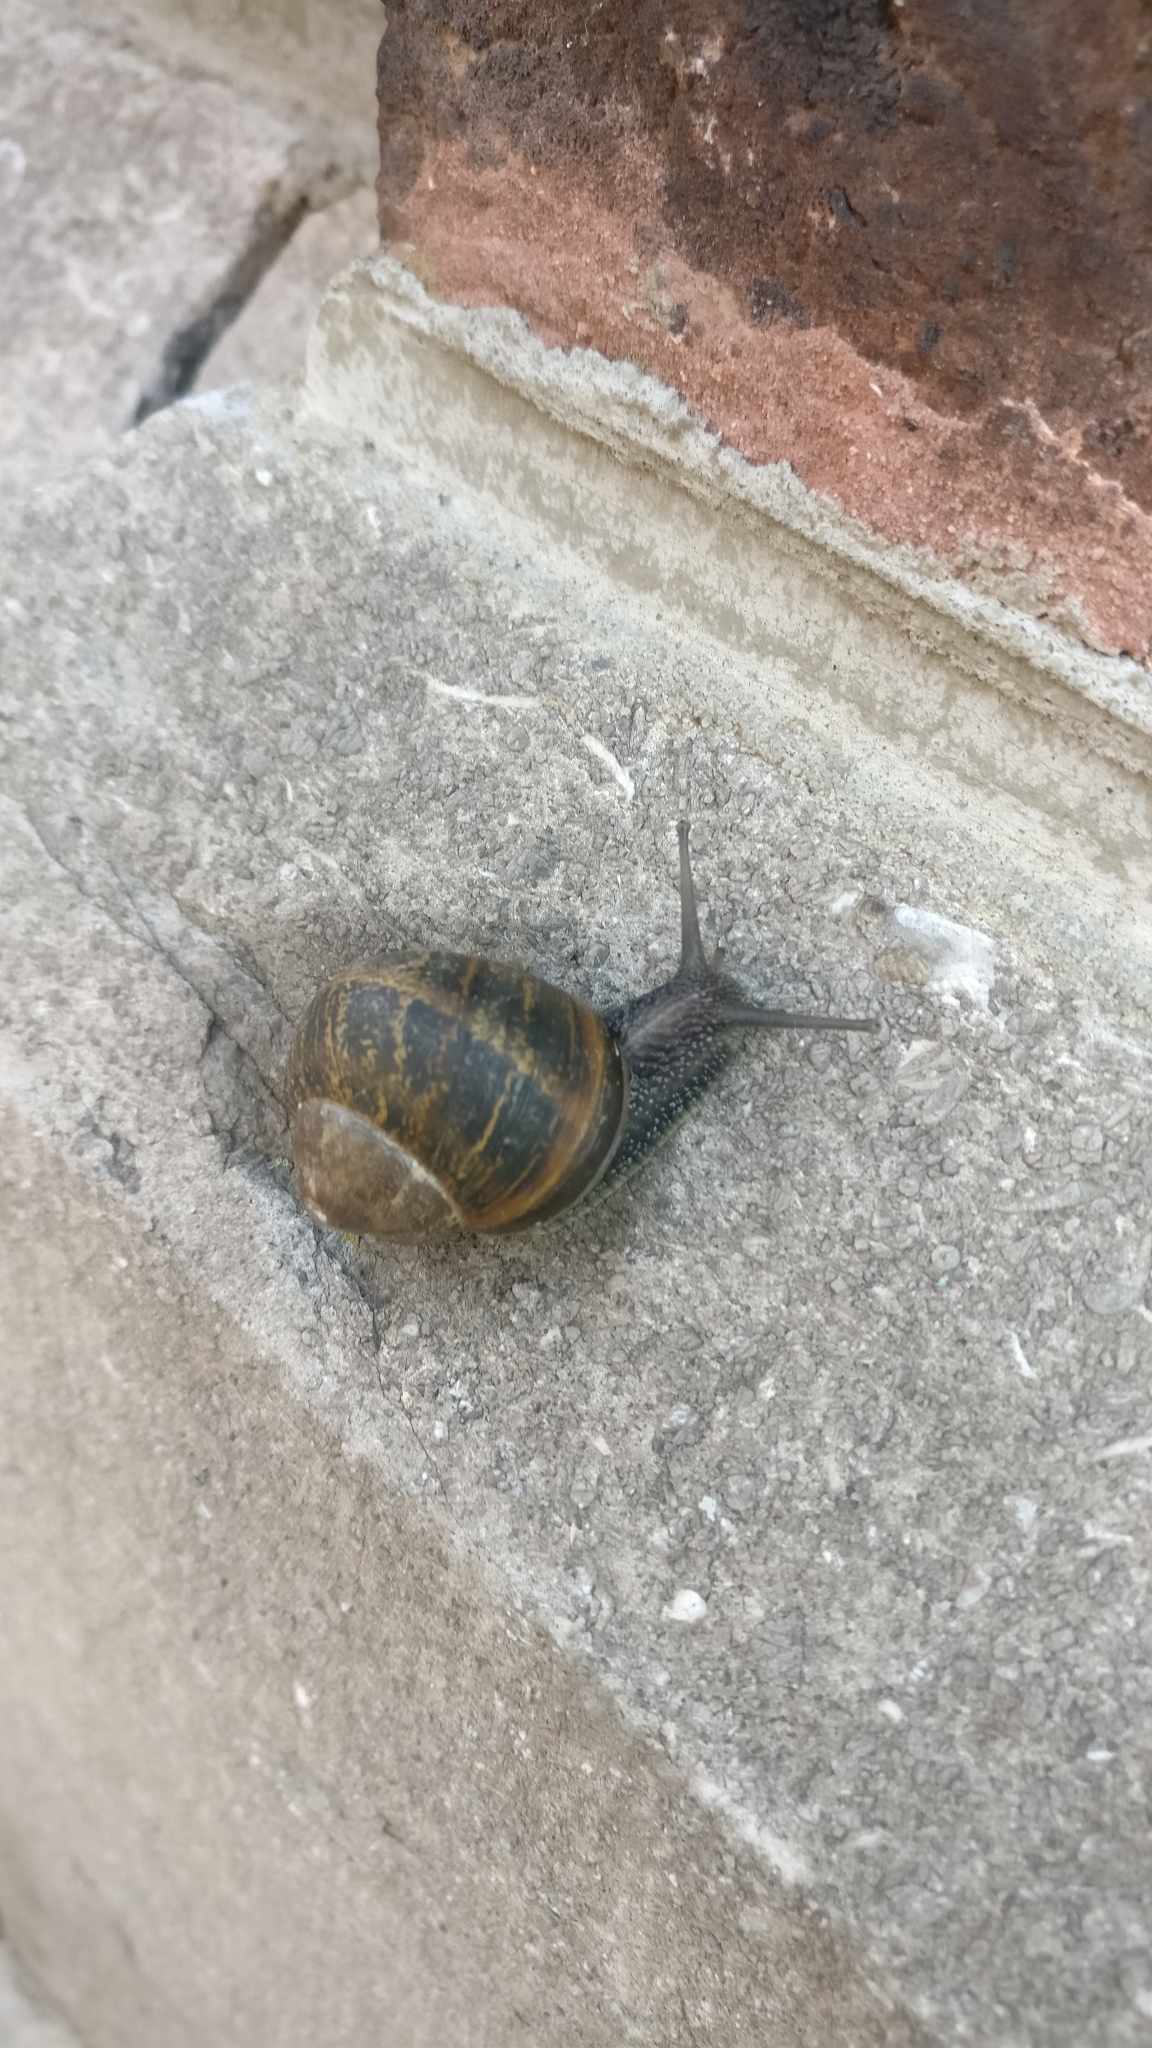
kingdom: Animalia
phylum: Mollusca
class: Gastropoda
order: Stylommatophora
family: Helicidae
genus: Cornu
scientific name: Cornu aspersum
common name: Brown garden snail
